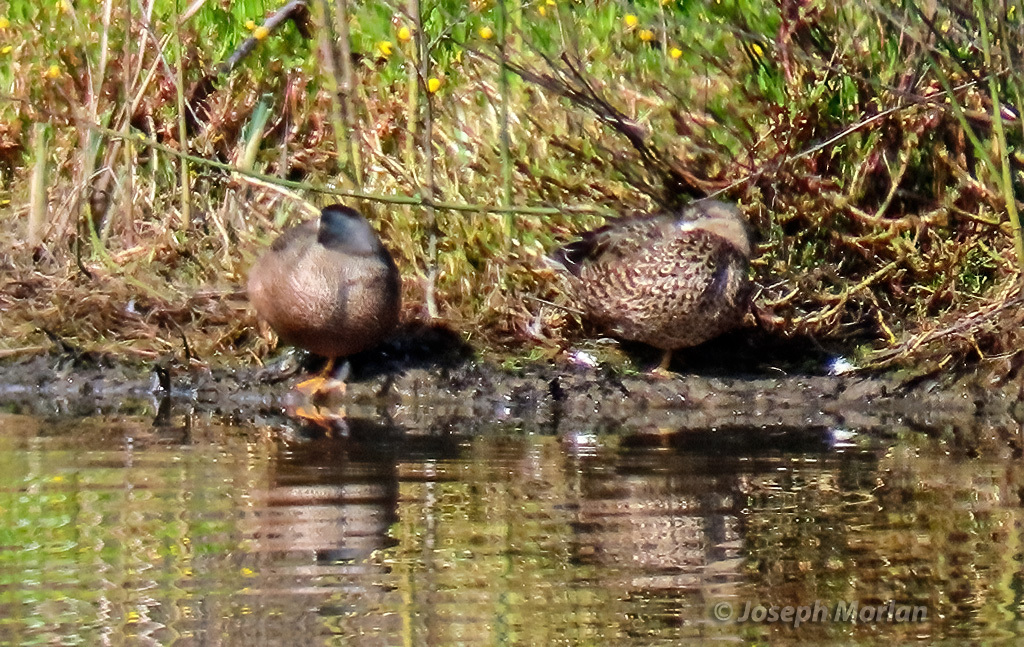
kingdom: Animalia
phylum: Chordata
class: Aves
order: Anseriformes
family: Anatidae
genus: Spatula
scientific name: Spatula discors
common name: Blue-winged teal
